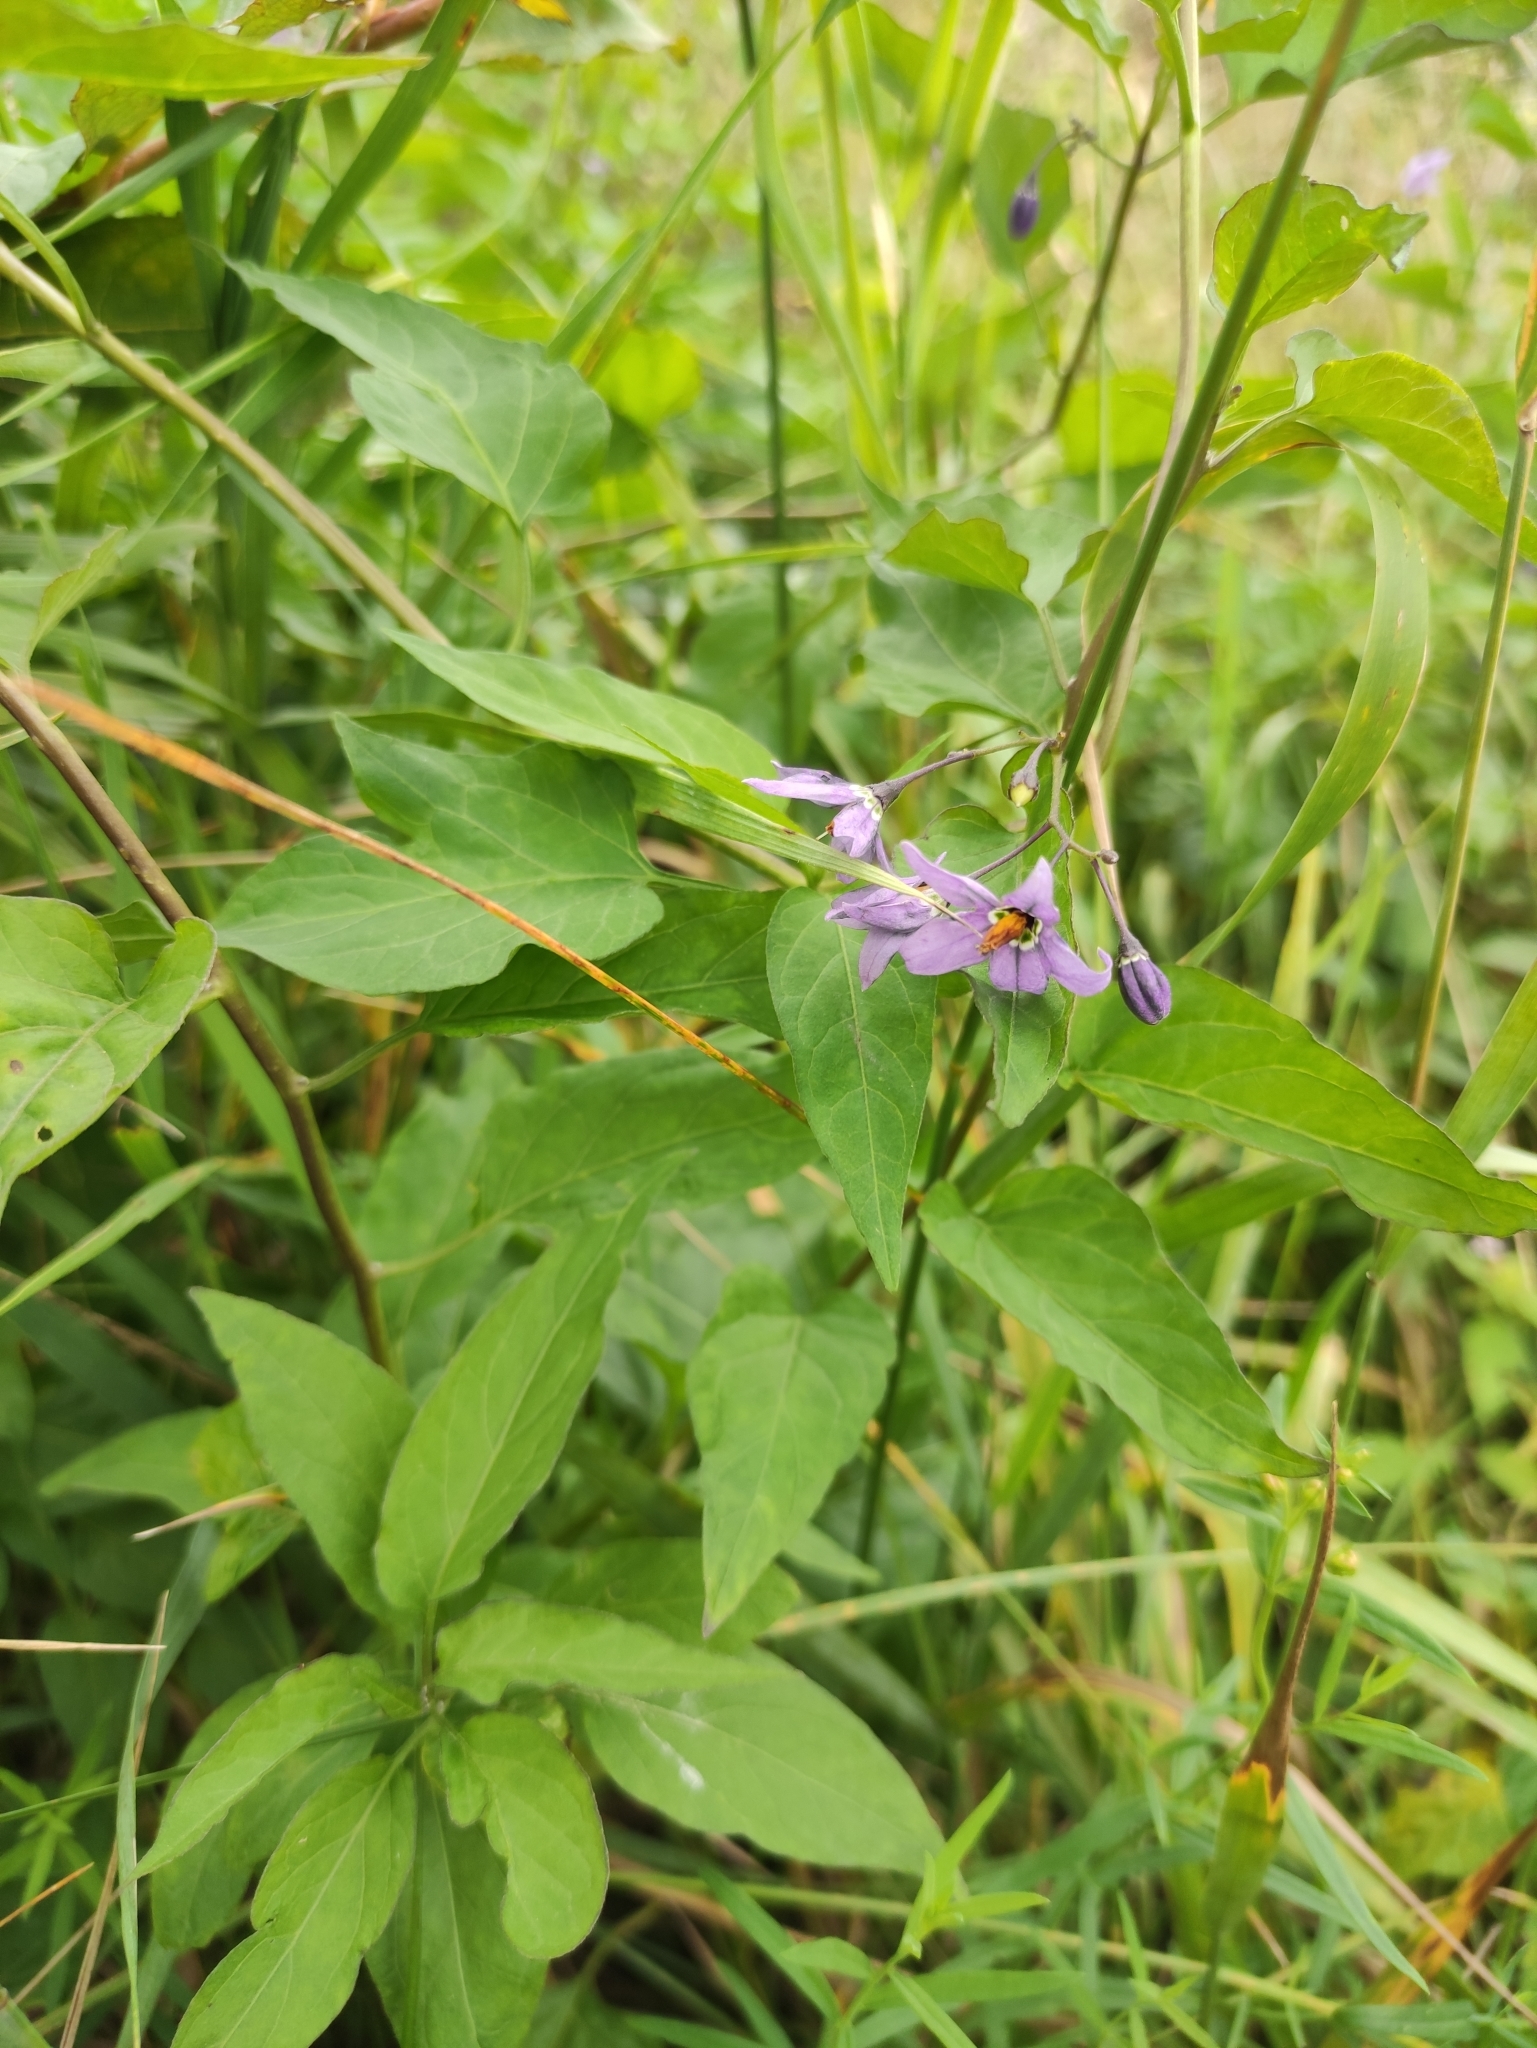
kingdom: Plantae
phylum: Tracheophyta
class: Magnoliopsida
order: Solanales
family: Solanaceae
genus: Solanum
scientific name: Solanum dulcamara
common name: Climbing nightshade
